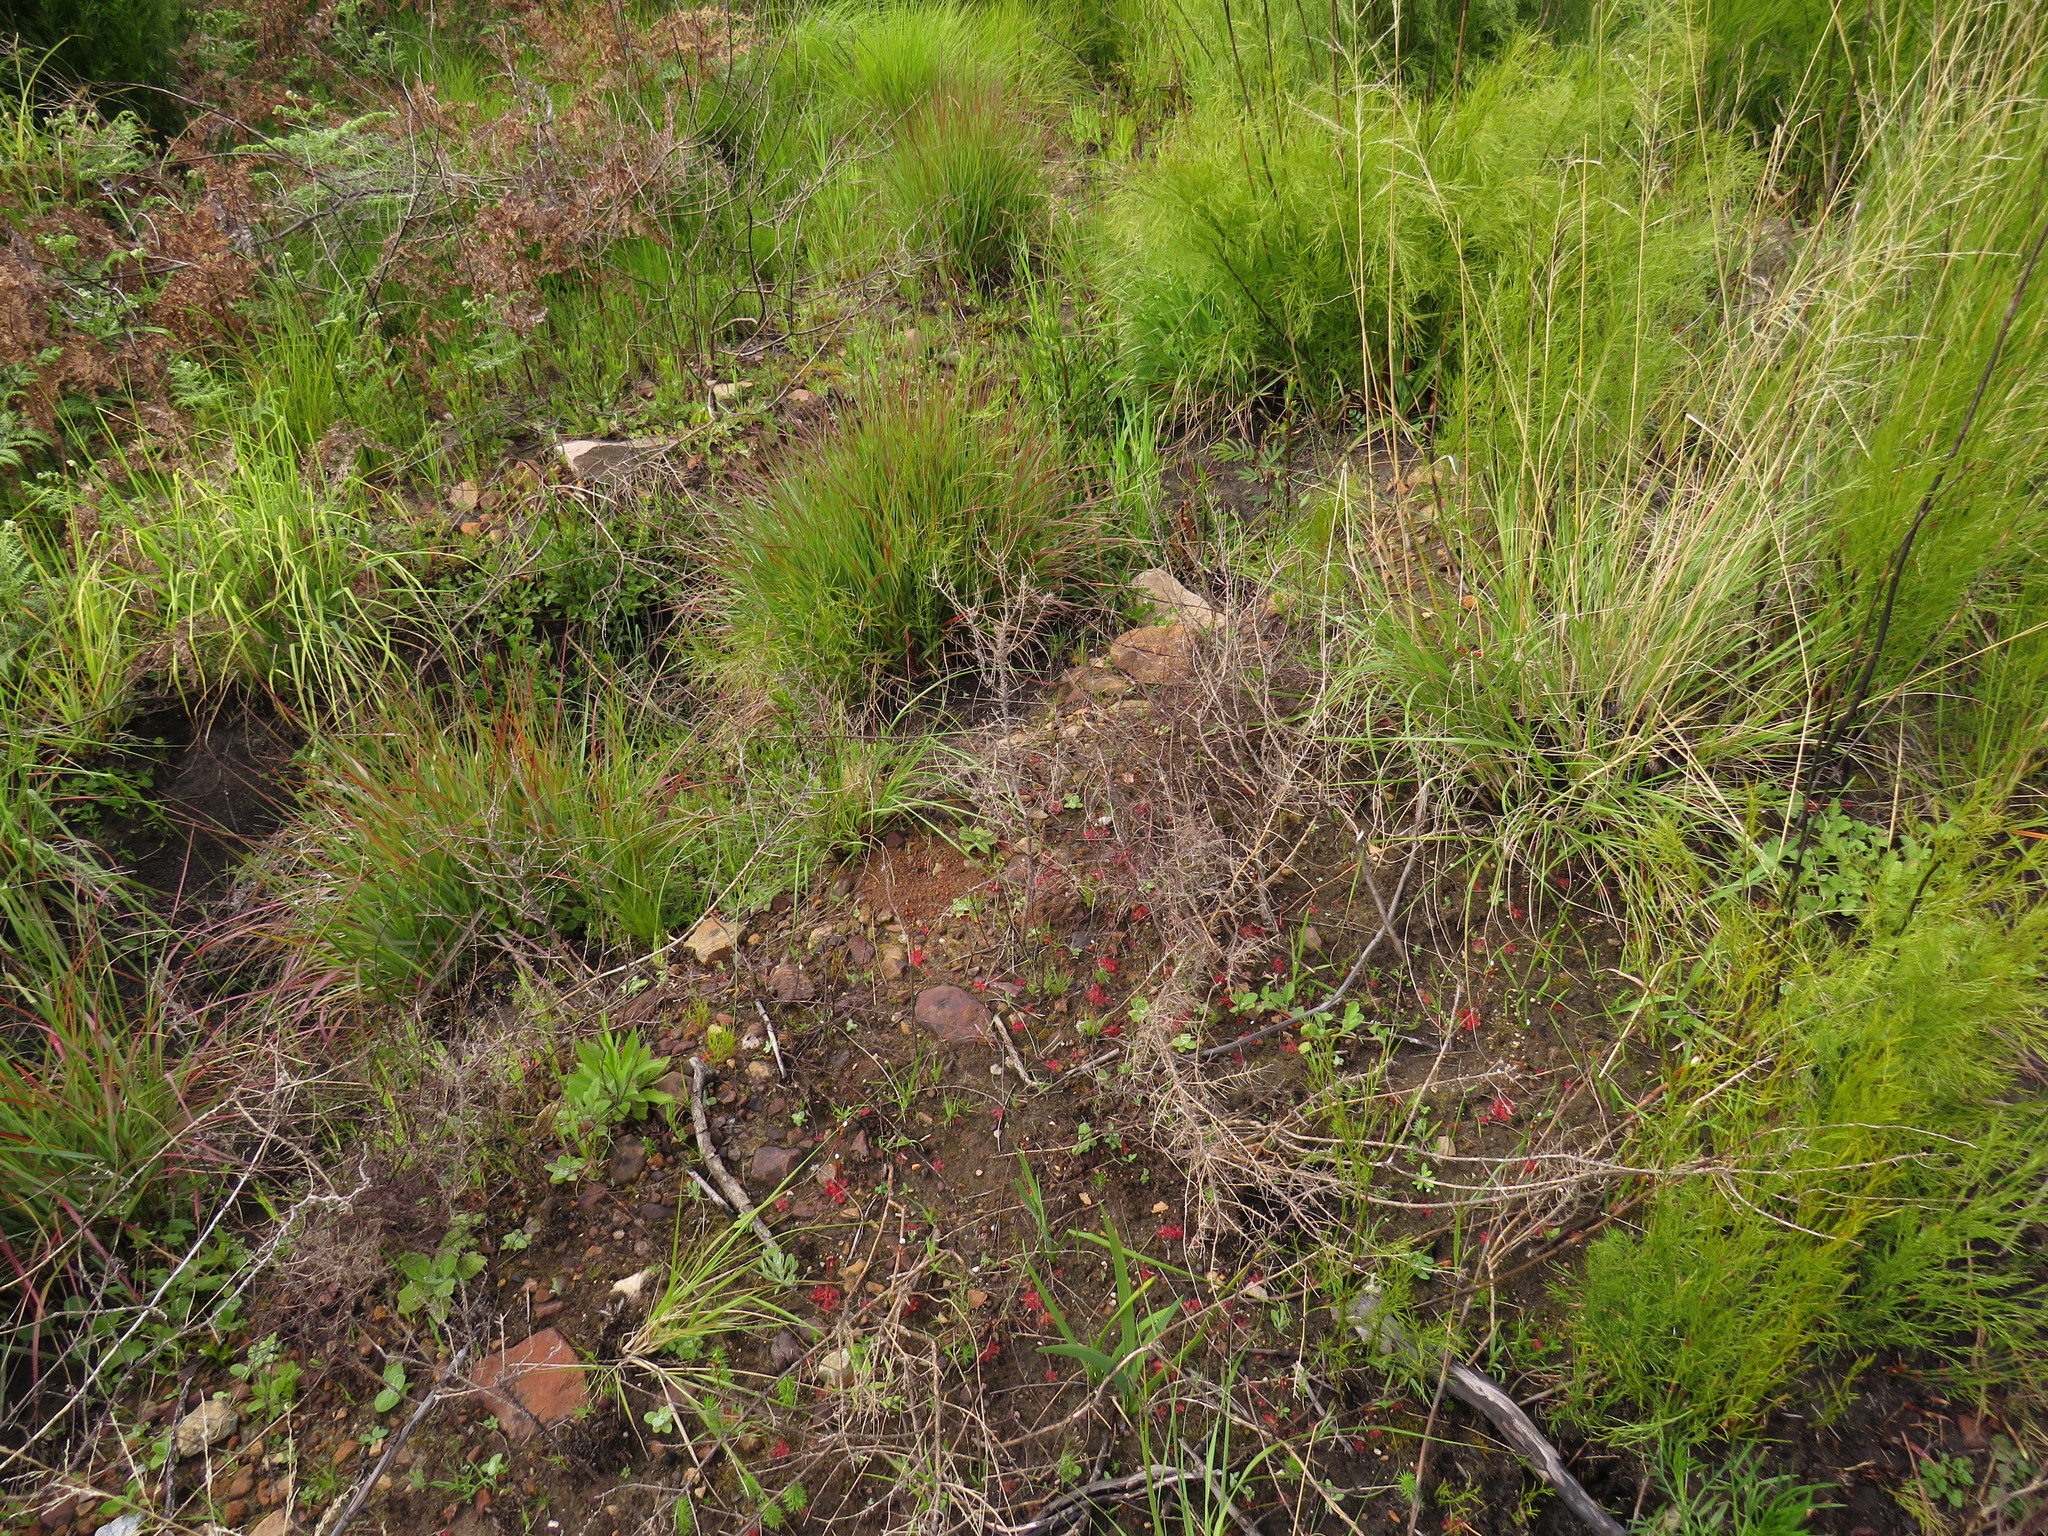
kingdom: Plantae
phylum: Tracheophyta
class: Magnoliopsida
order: Caryophyllales
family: Droseraceae
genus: Drosera
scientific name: Drosera trinervia
